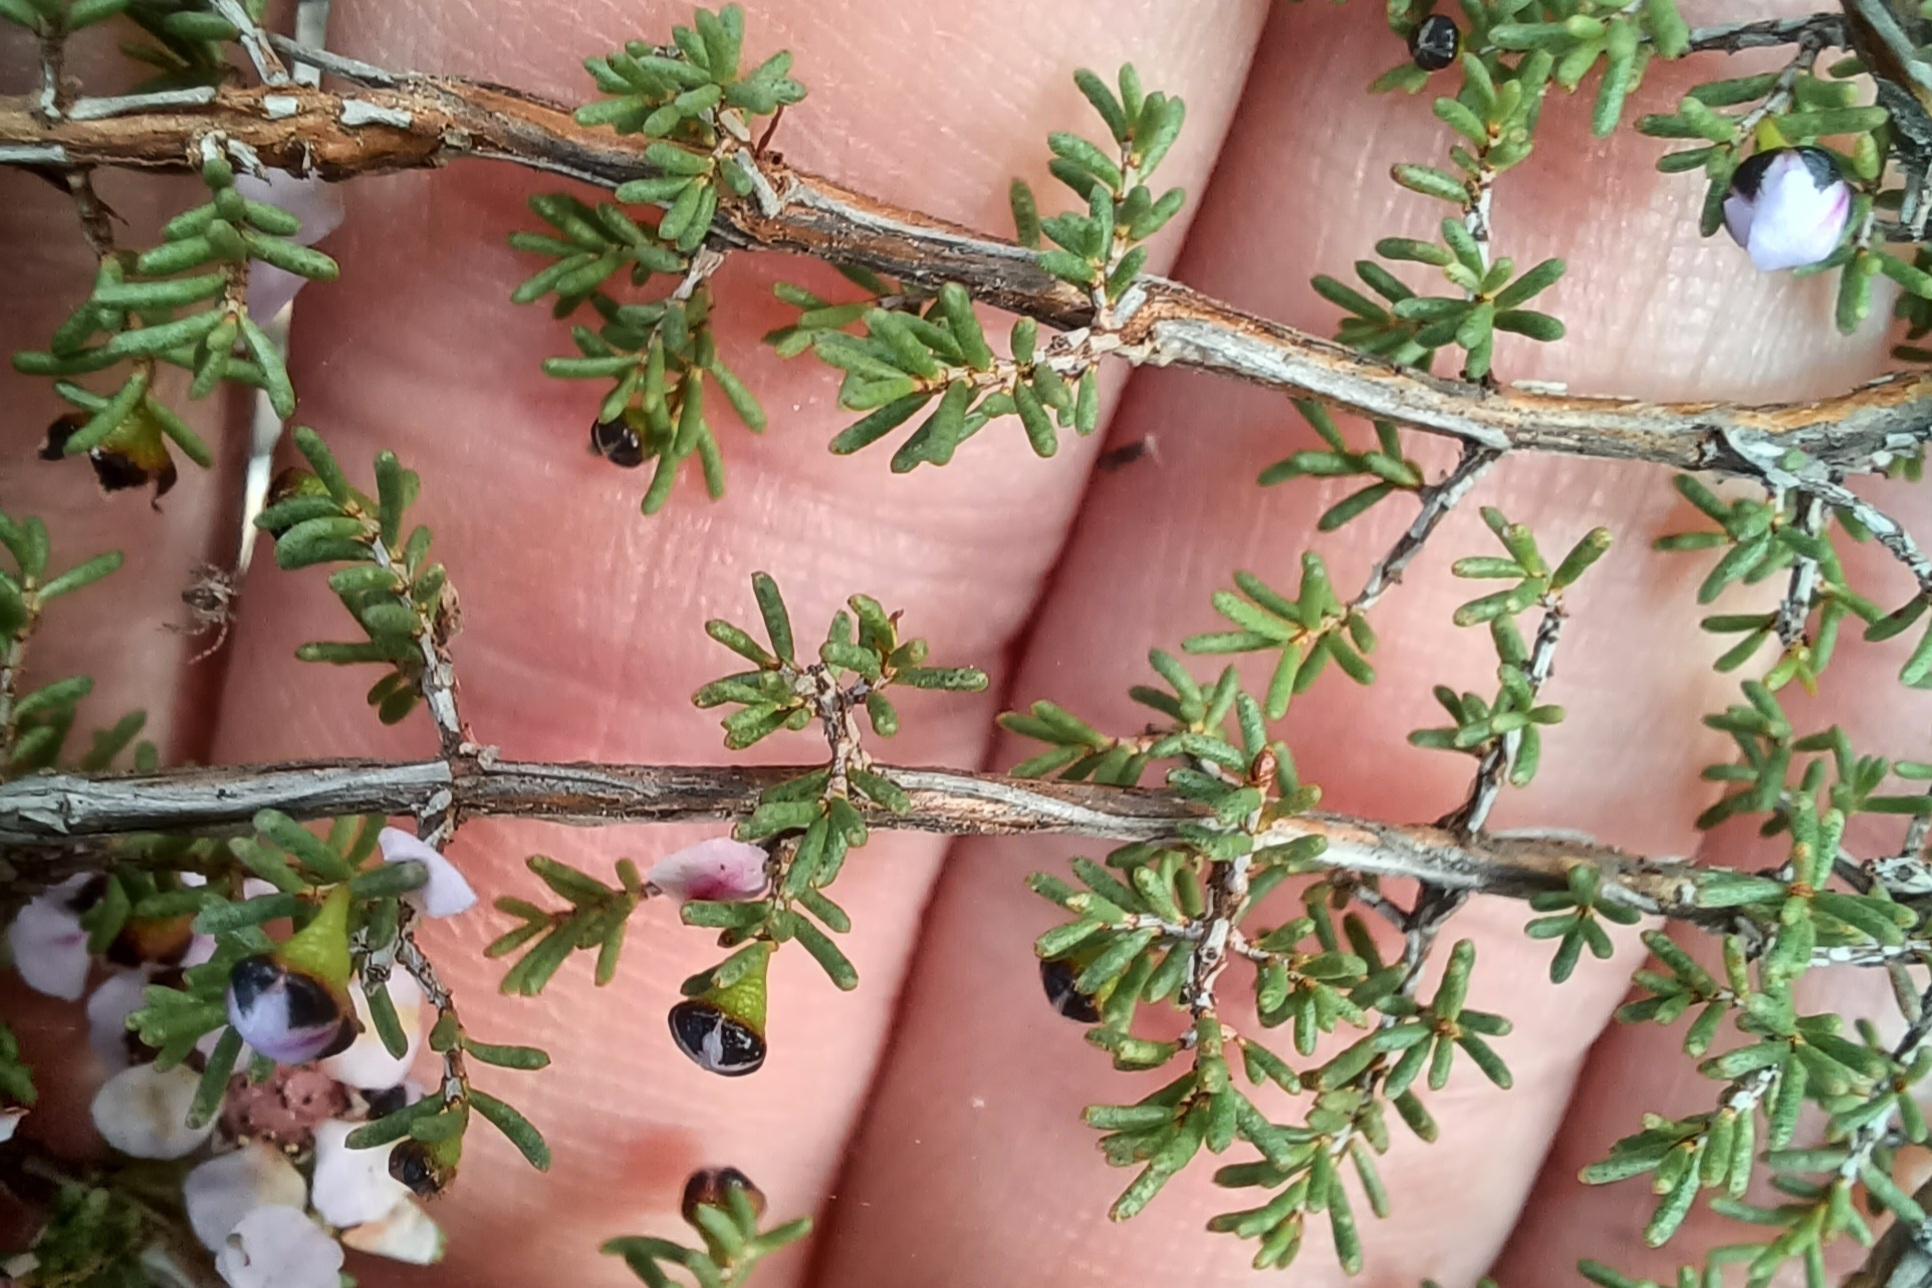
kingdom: Plantae
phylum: Tracheophyta
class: Magnoliopsida
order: Myrtales
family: Myrtaceae
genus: Rinzia
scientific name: Rinzia orientalis
